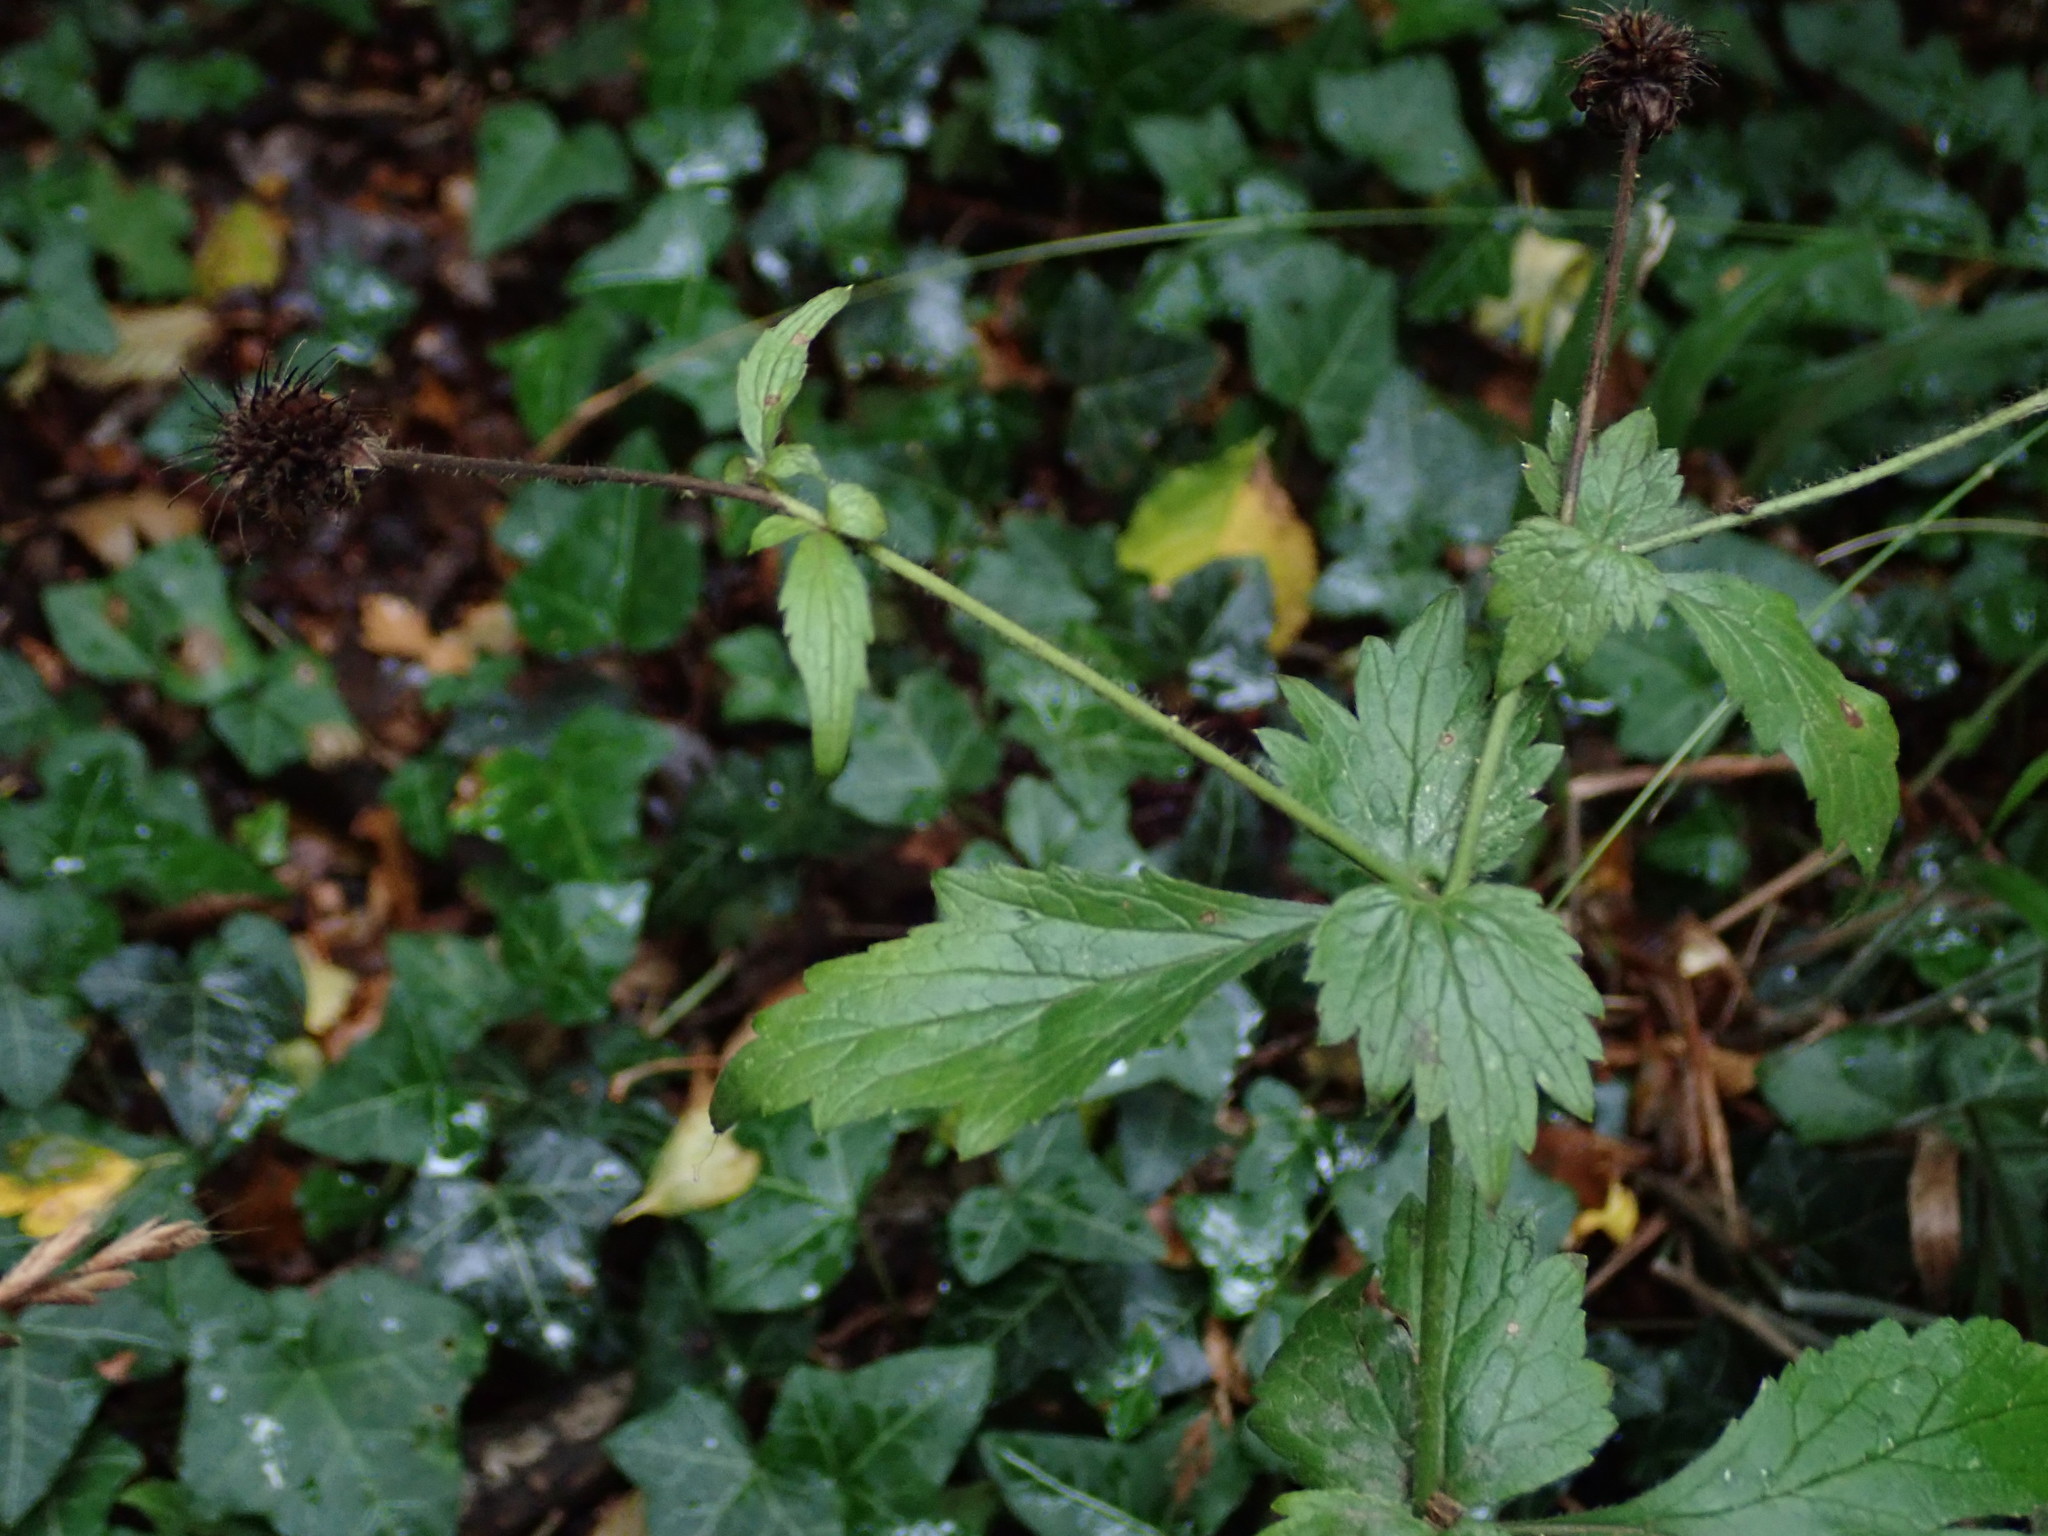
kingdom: Plantae
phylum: Tracheophyta
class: Magnoliopsida
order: Rosales
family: Rosaceae
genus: Geum
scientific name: Geum urbanum
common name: Wood avens
